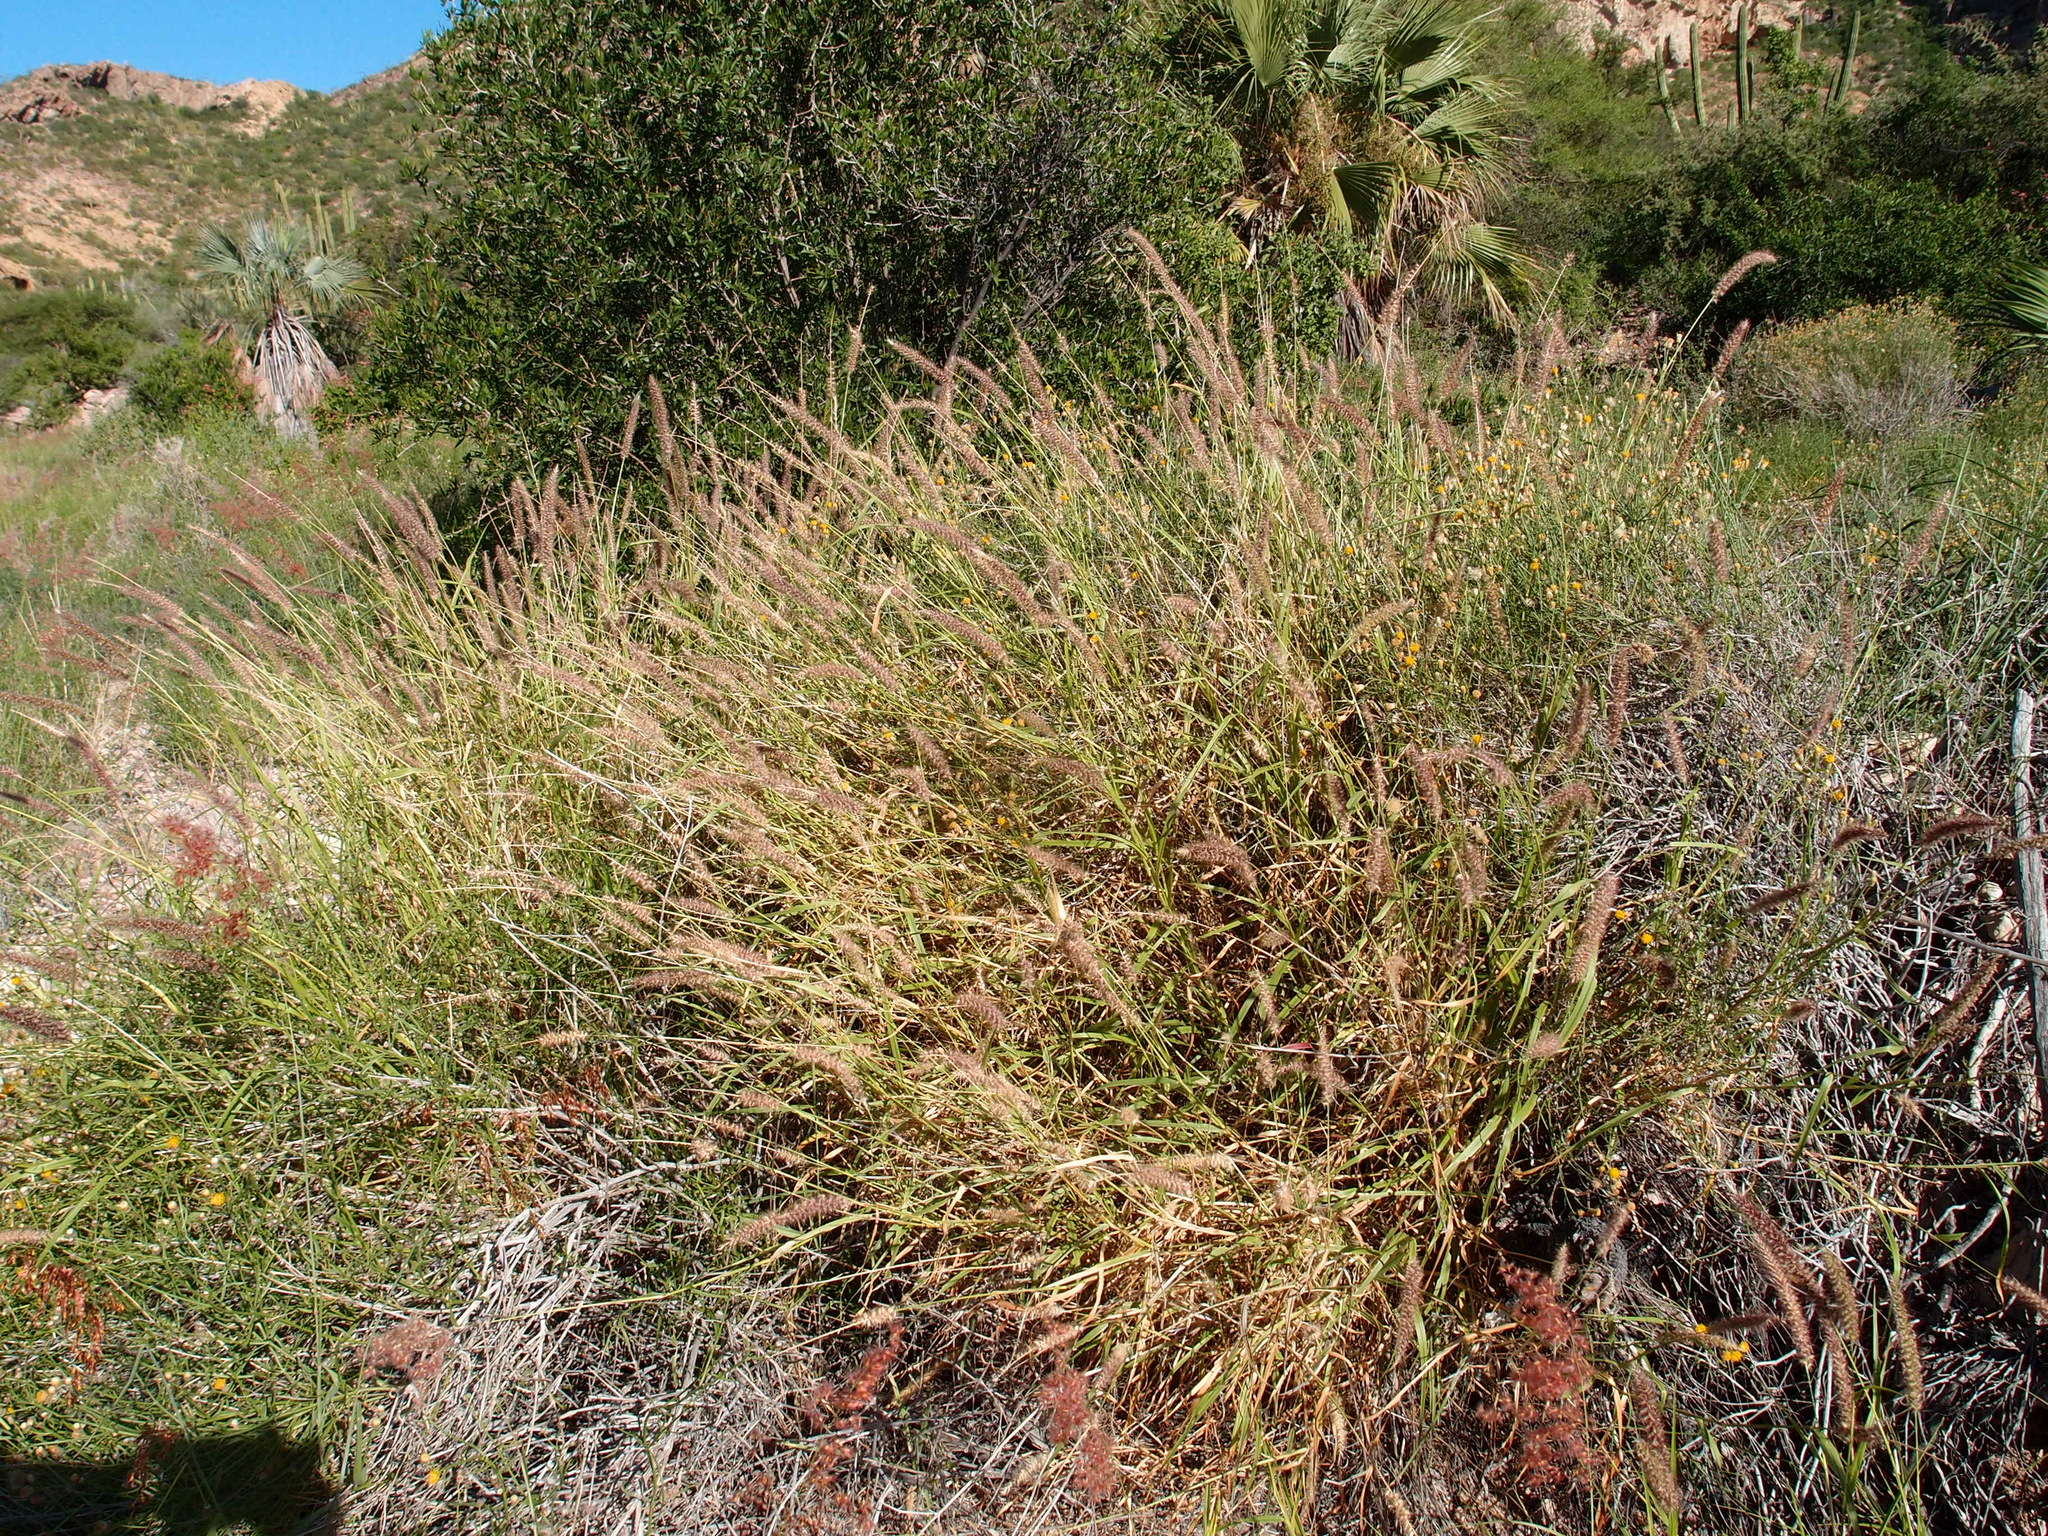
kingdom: Plantae
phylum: Tracheophyta
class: Liliopsida
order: Poales
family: Poaceae
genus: Cenchrus
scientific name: Cenchrus ciliaris
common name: Buffelgrass
